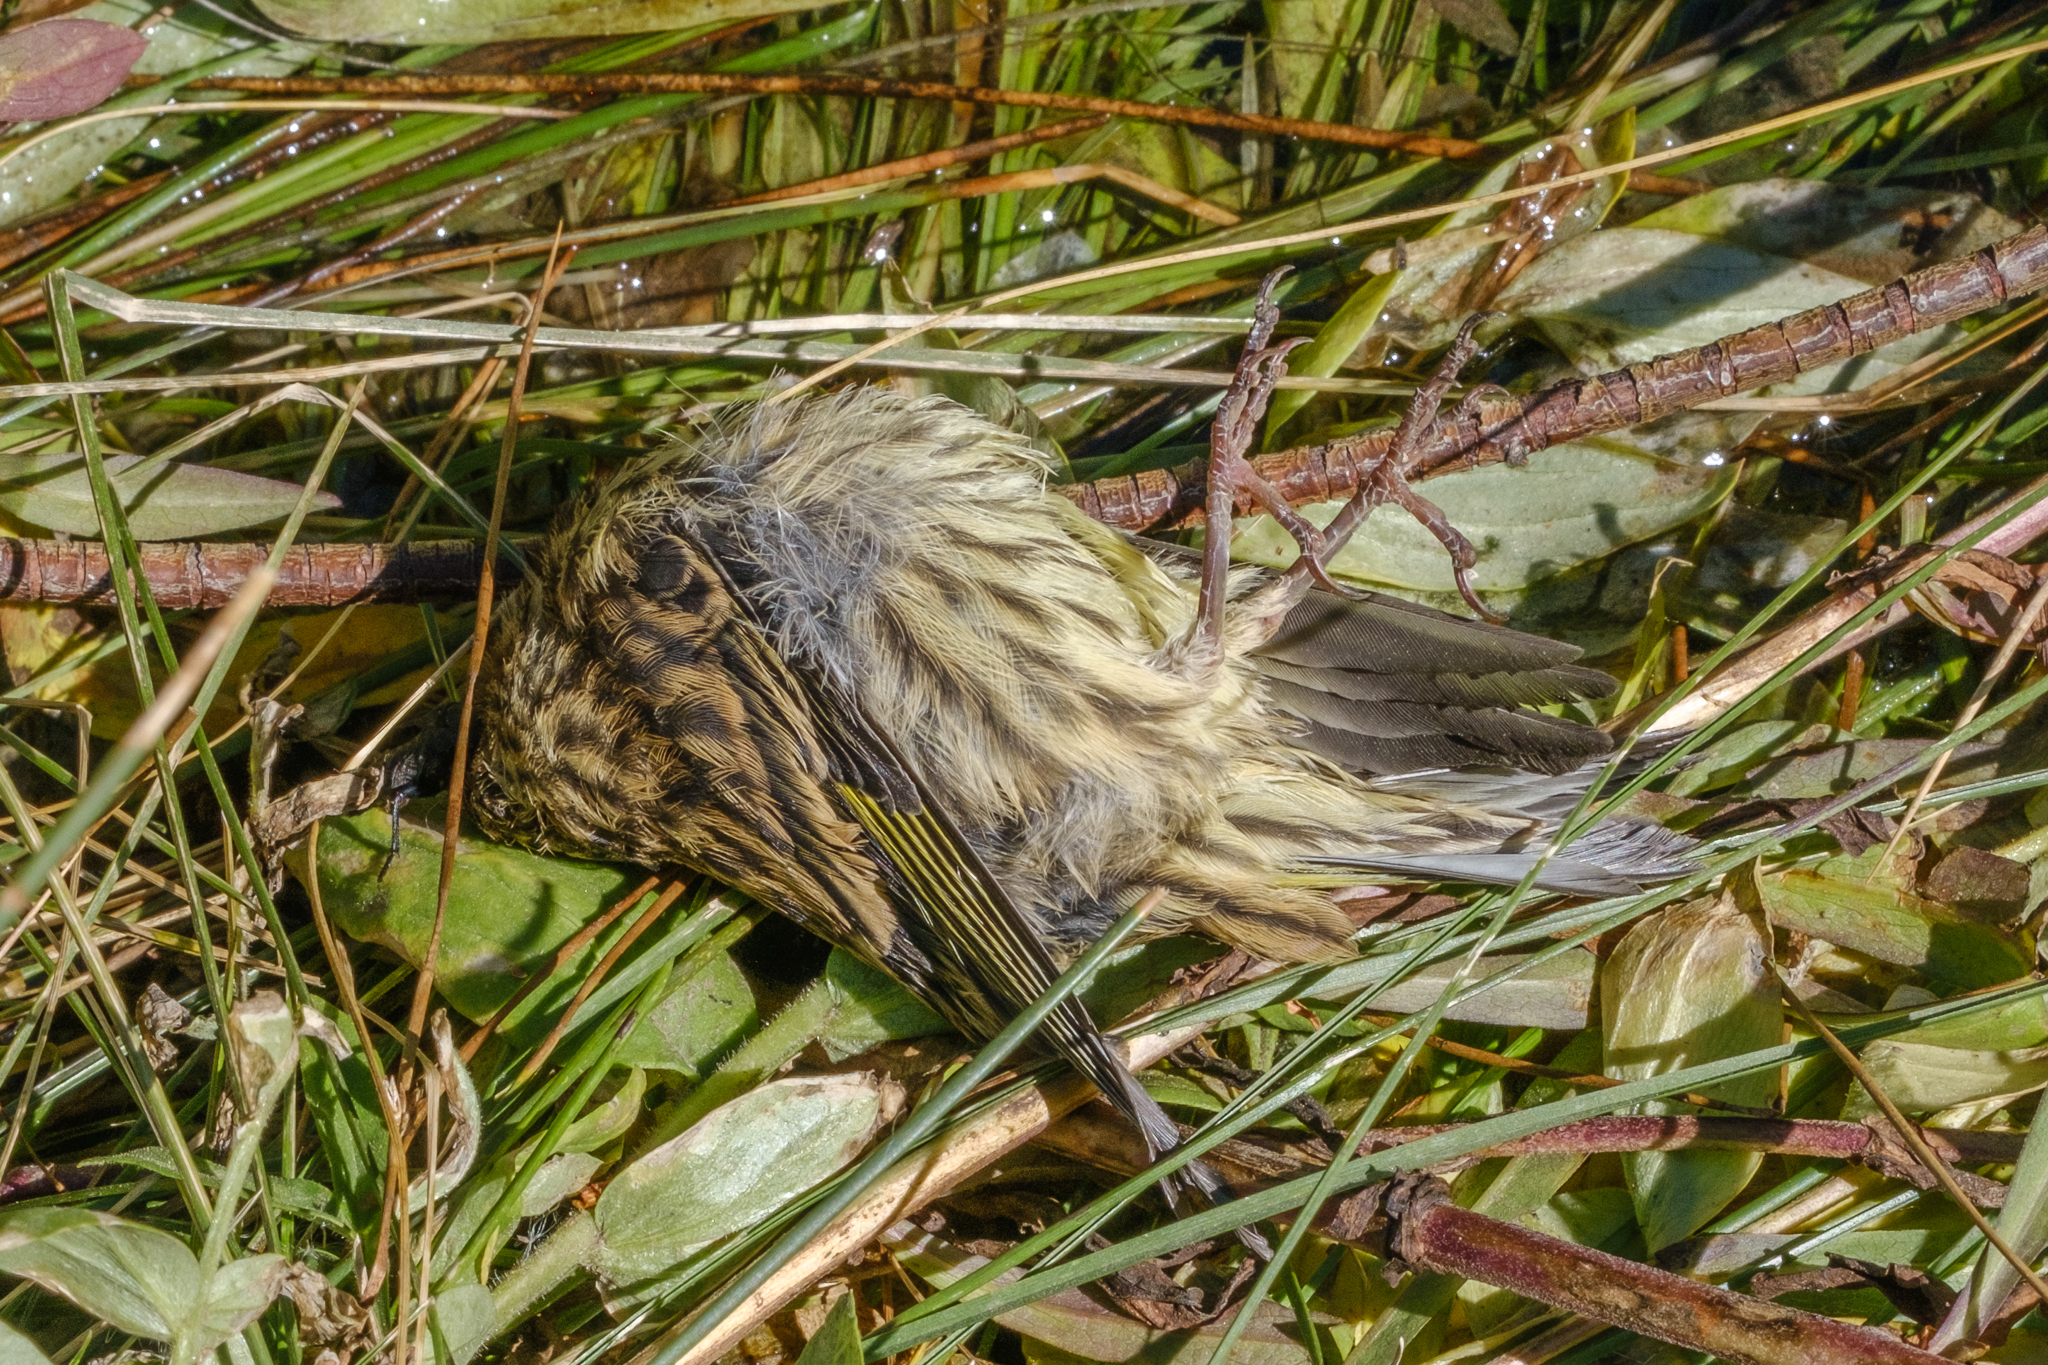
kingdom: Animalia
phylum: Chordata
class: Aves
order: Passeriformes
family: Fringillidae
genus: Spinus
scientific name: Spinus pinus
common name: Pine siskin
